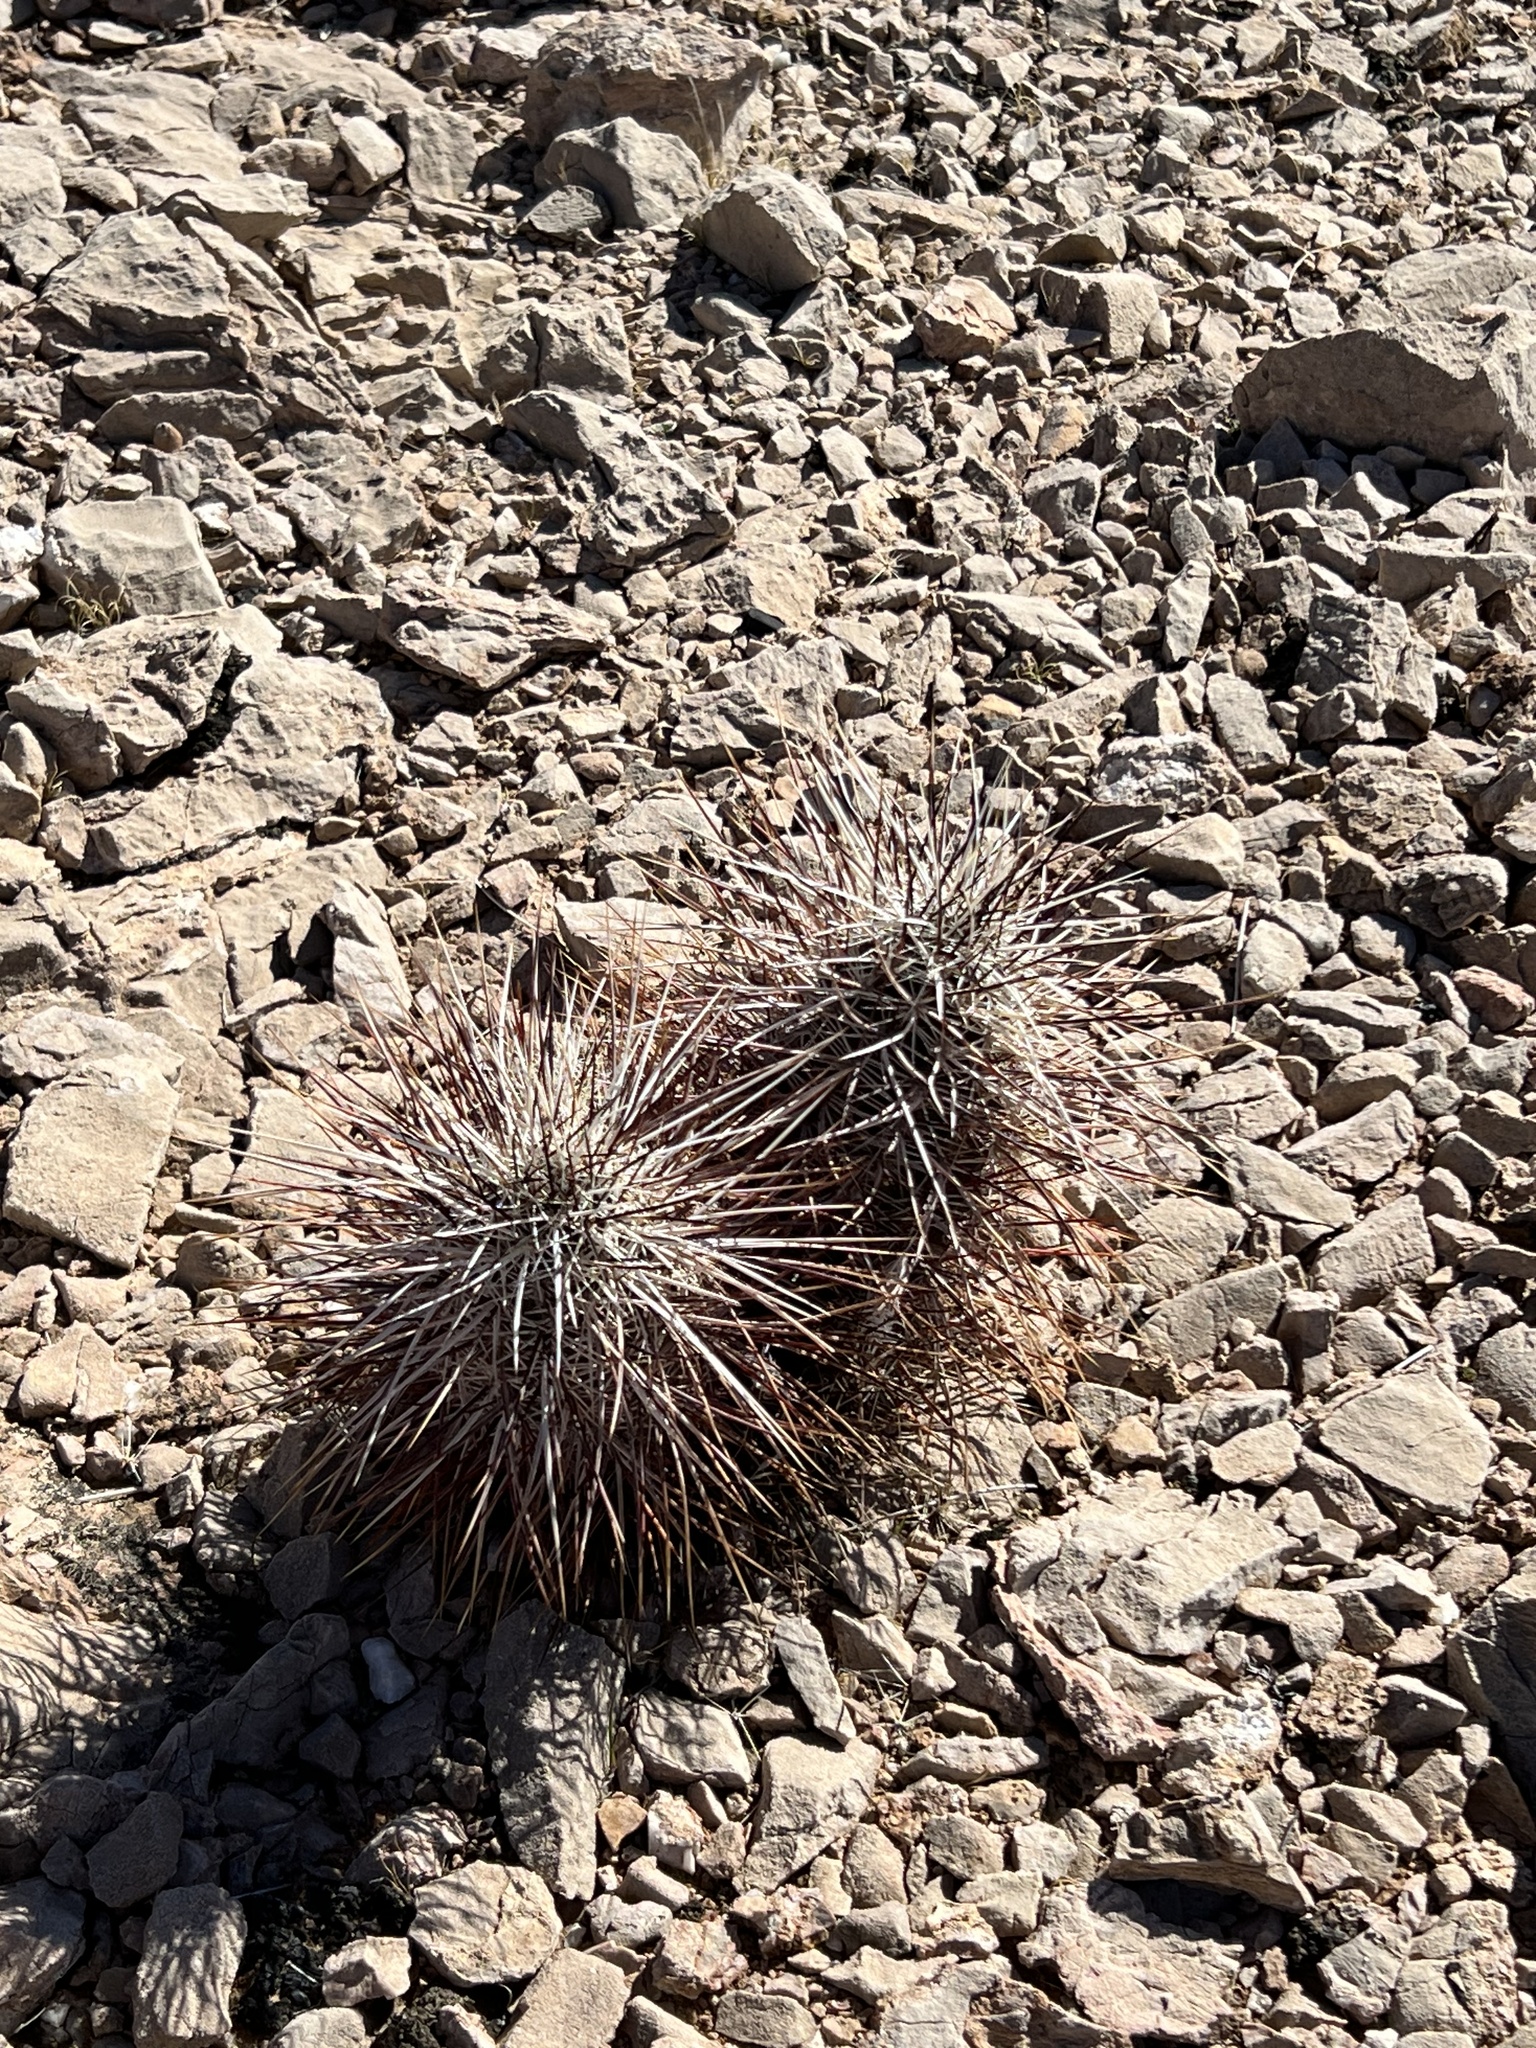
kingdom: Plantae
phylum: Tracheophyta
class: Magnoliopsida
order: Caryophyllales
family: Cactaceae
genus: Echinocereus
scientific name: Echinocereus engelmannii
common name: Engelmann's hedgehog cactus
